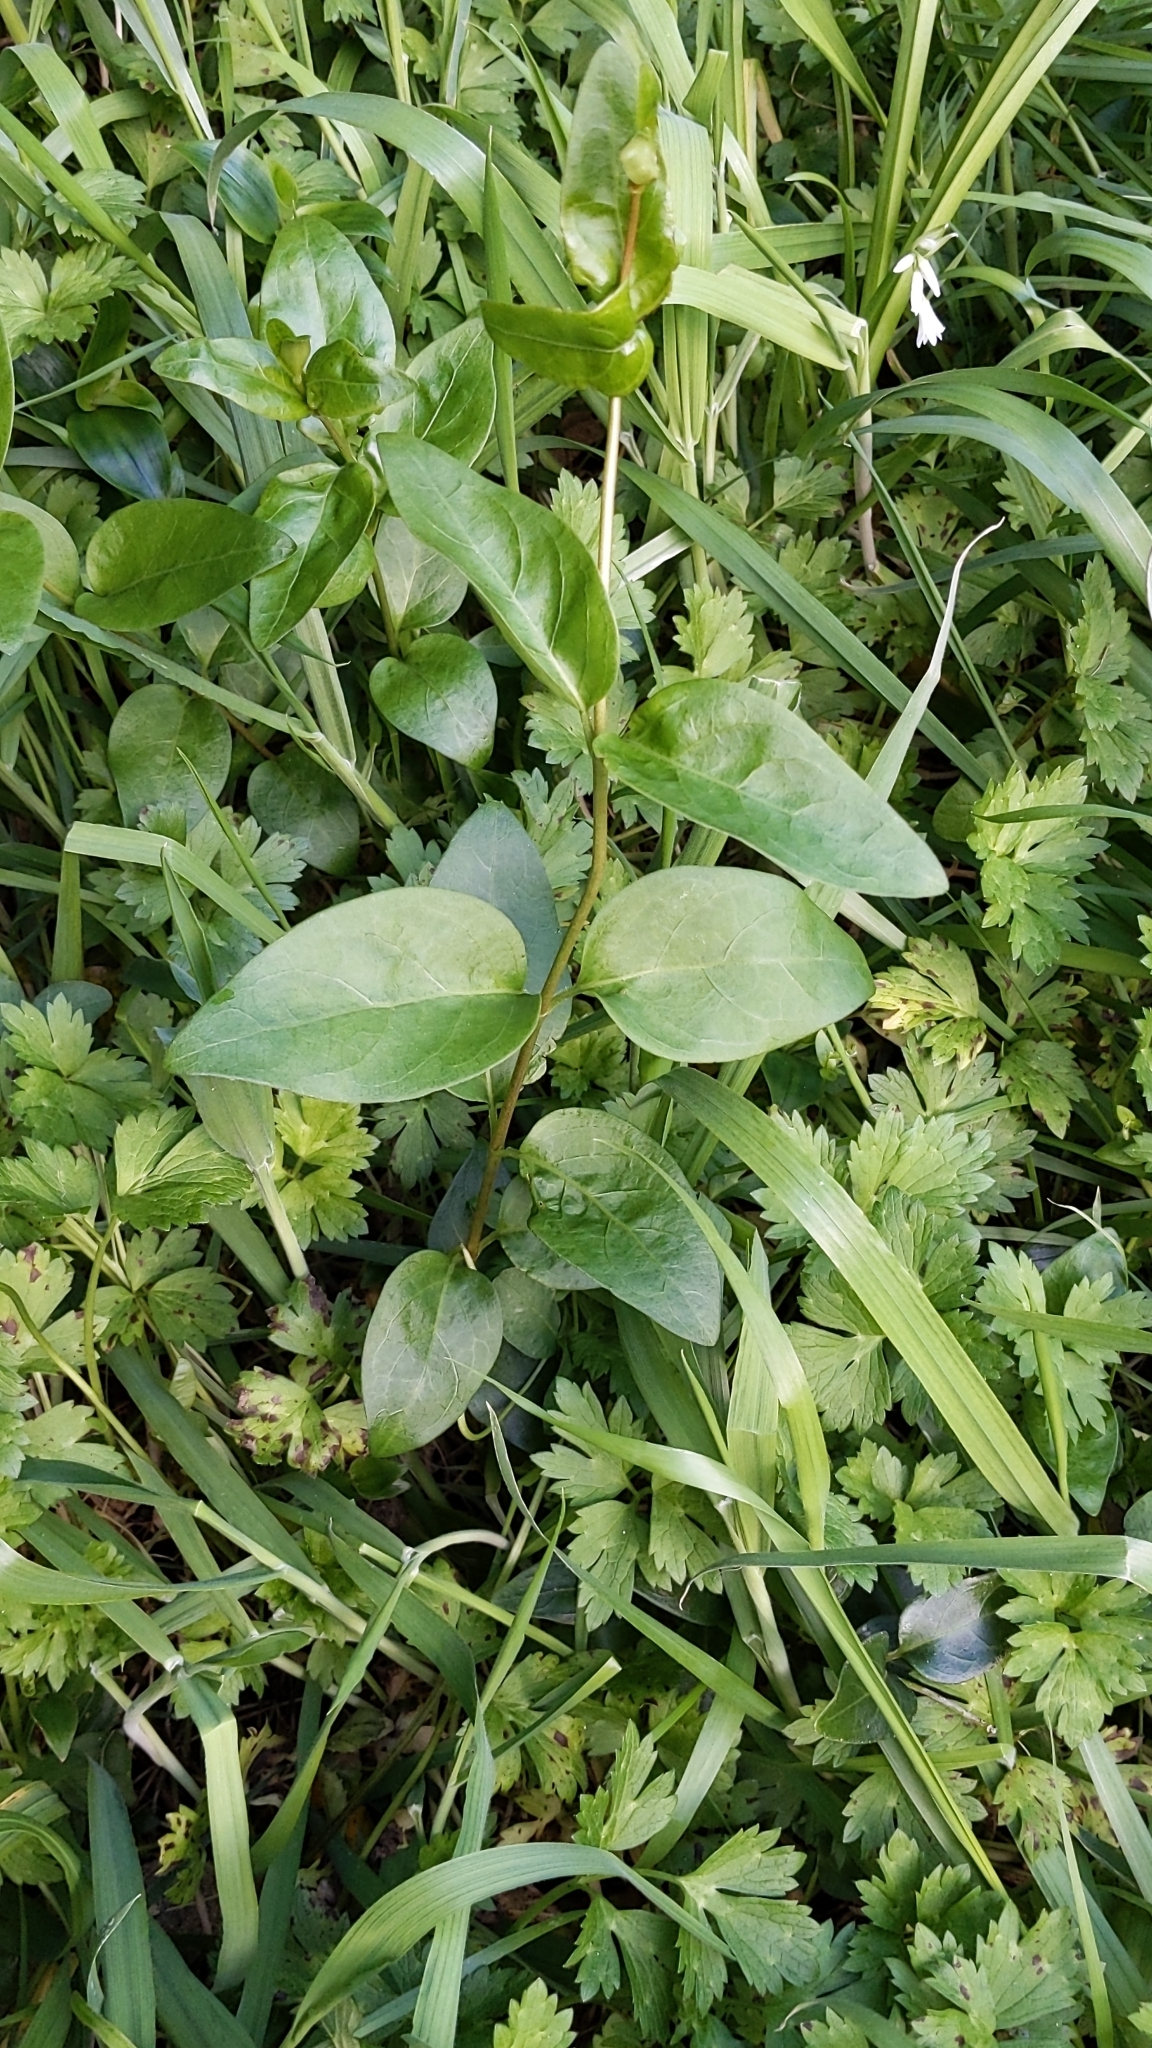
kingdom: Plantae
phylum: Tracheophyta
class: Magnoliopsida
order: Gentianales
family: Apocynaceae
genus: Vinca
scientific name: Vinca major
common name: Greater periwinkle
